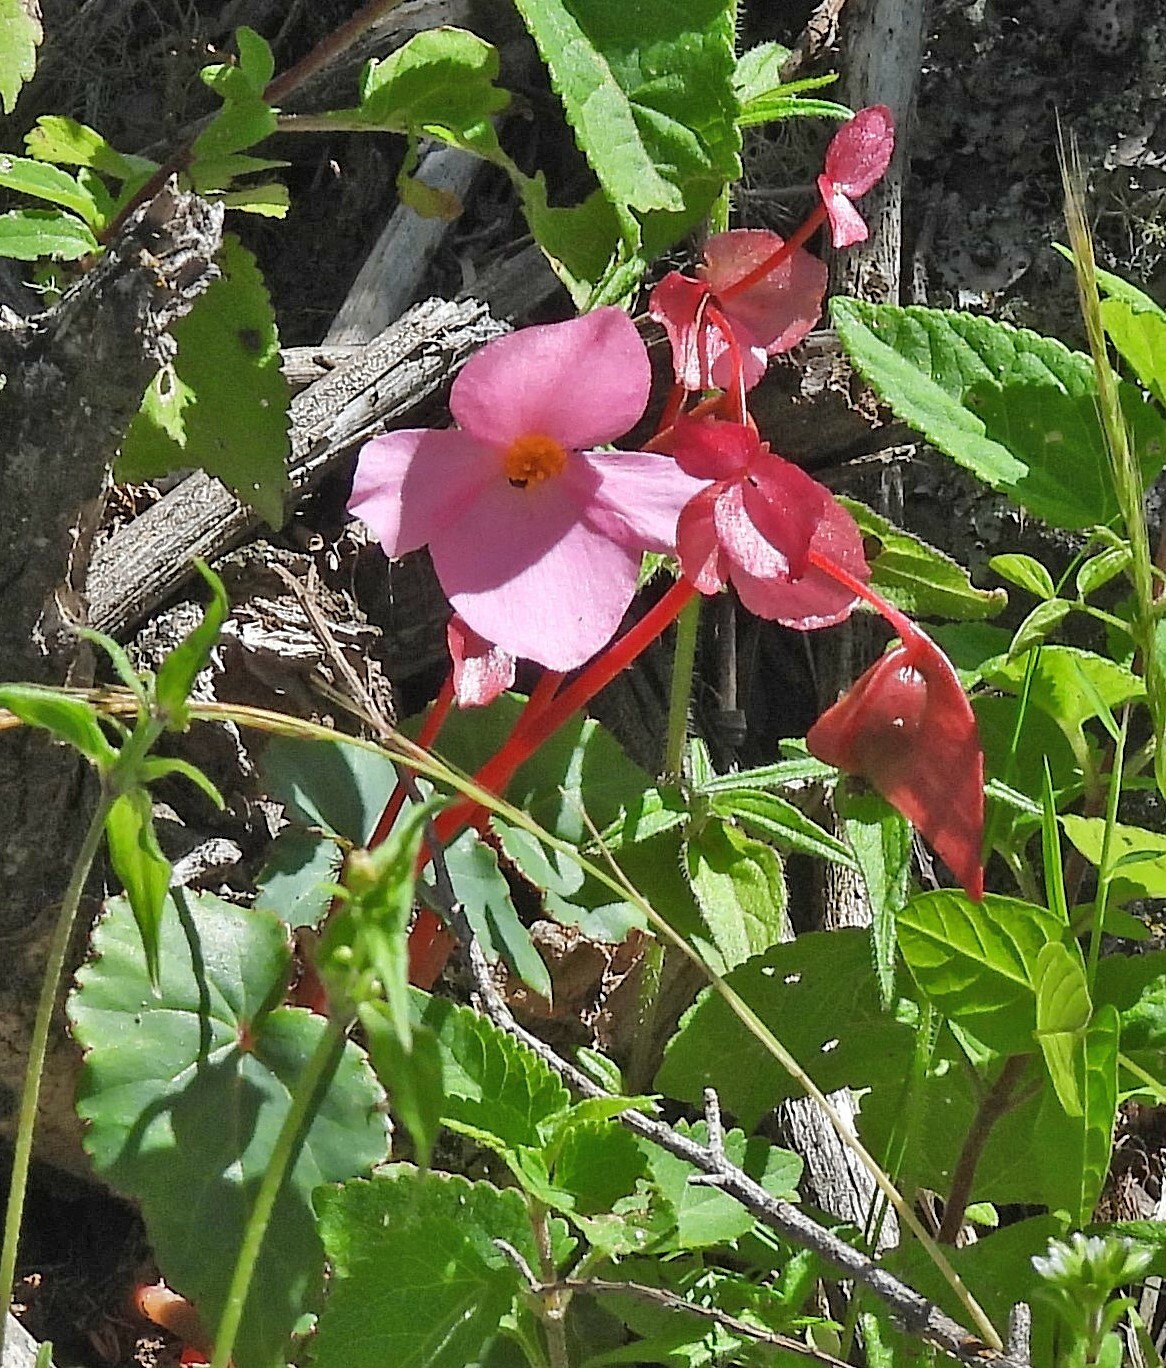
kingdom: Plantae
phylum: Tracheophyta
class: Magnoliopsida
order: Cucurbitales
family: Begoniaceae
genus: Begonia
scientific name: Begonia micranthera
